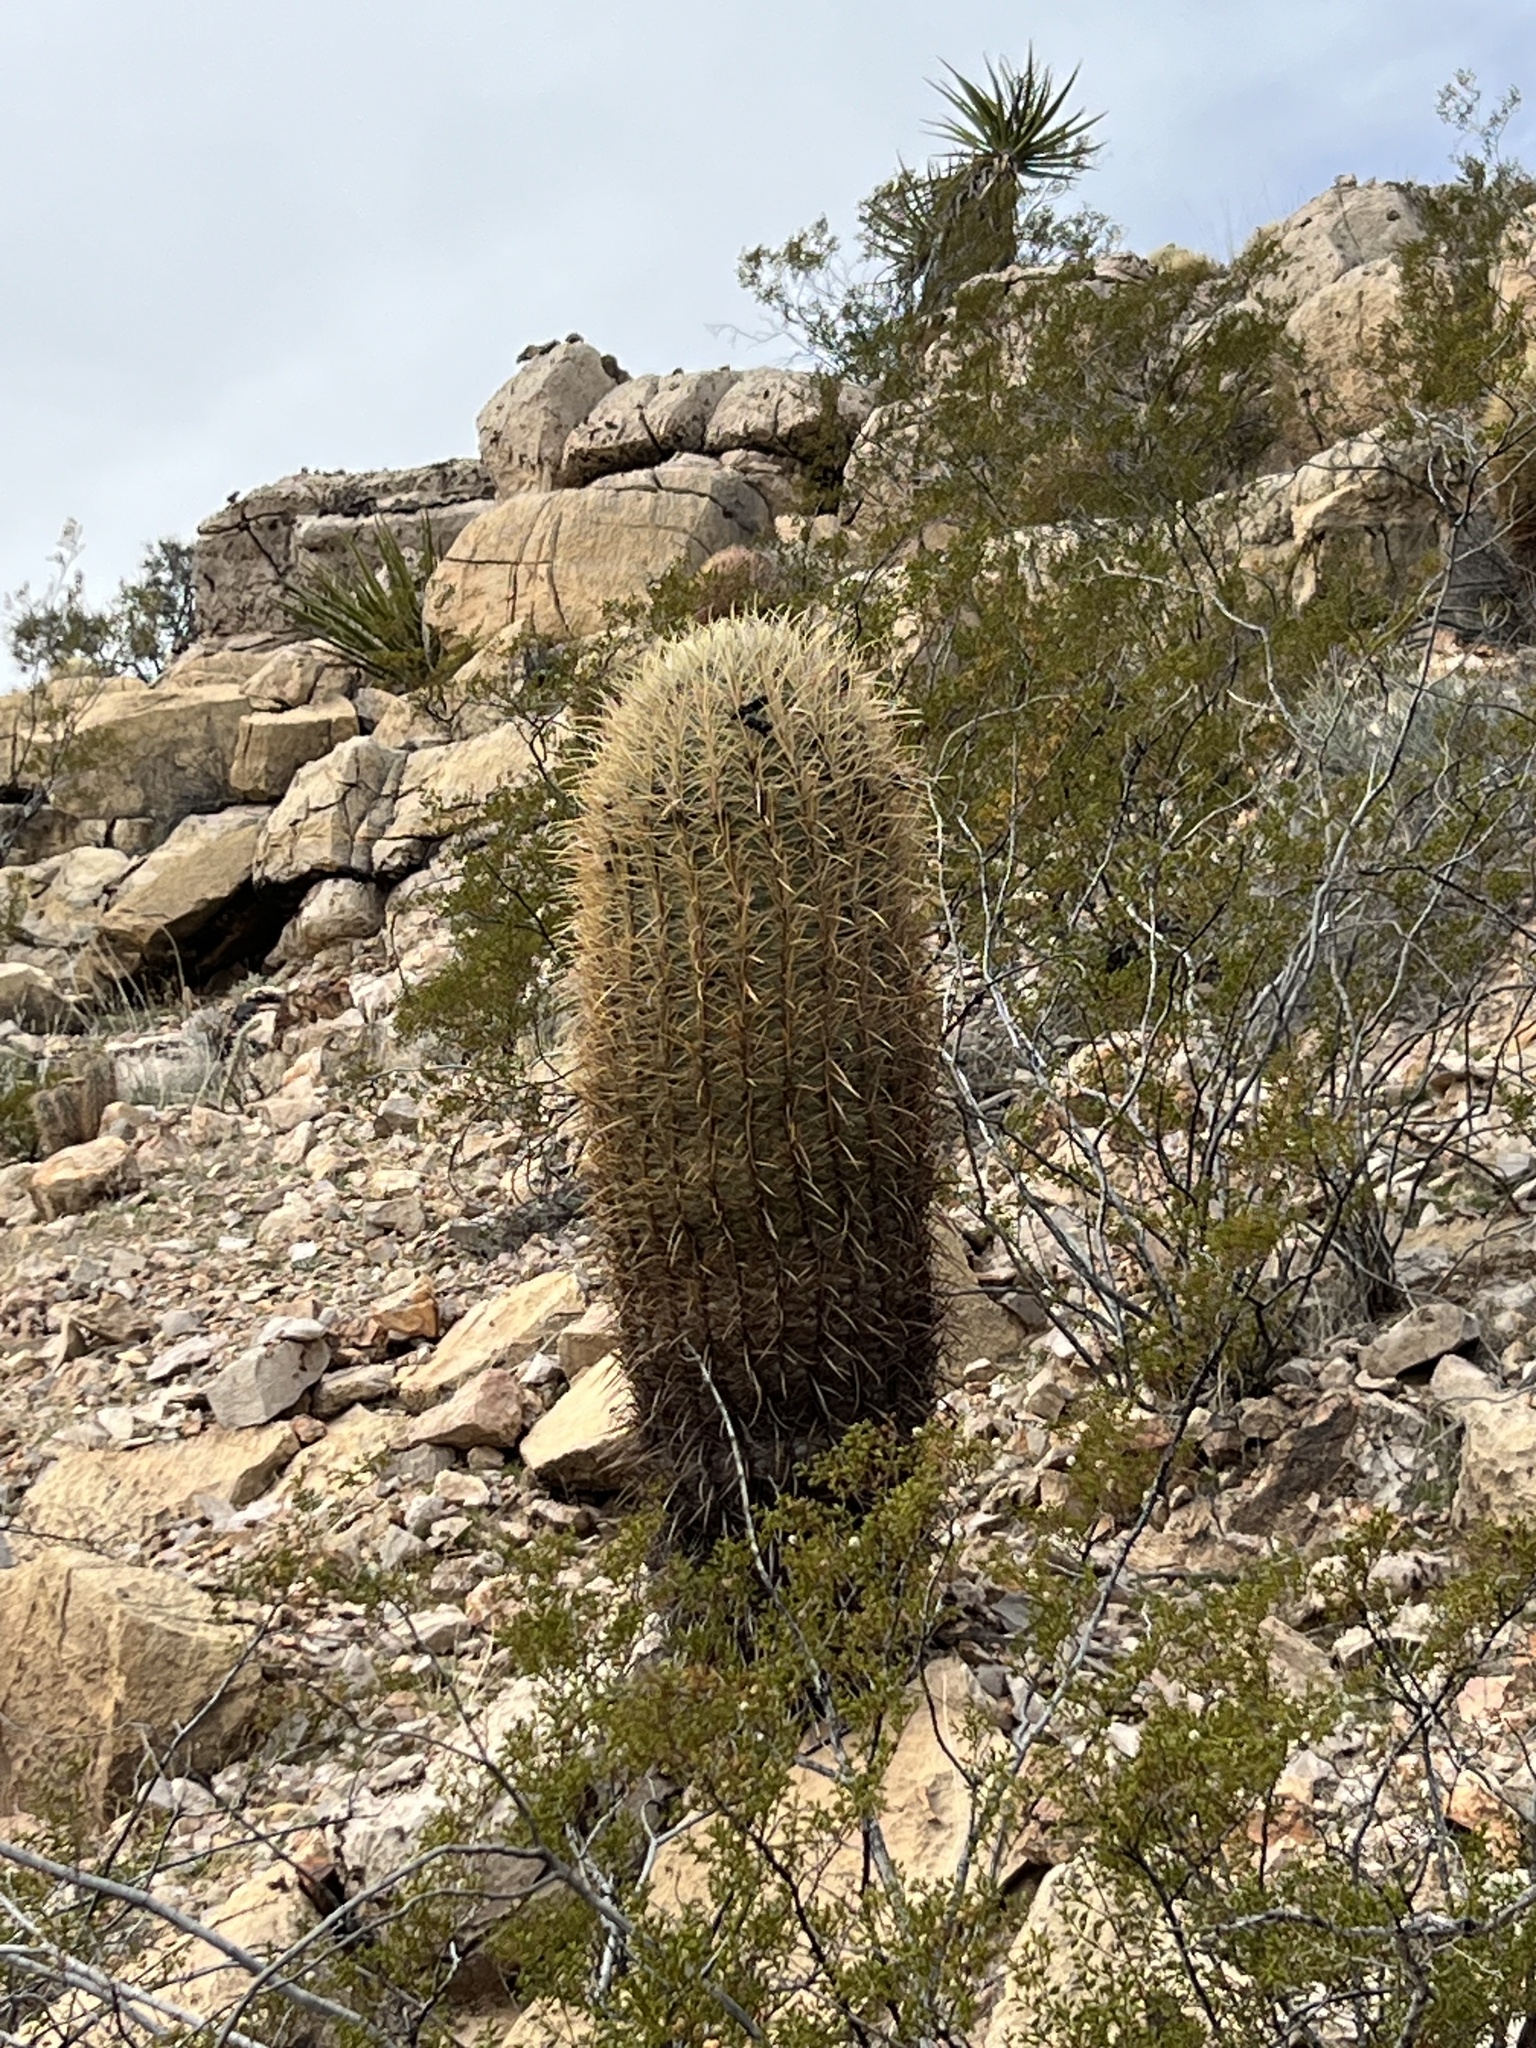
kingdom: Plantae
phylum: Tracheophyta
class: Magnoliopsida
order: Caryophyllales
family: Cactaceae
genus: Ferocactus
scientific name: Ferocactus cylindraceus
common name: California barrel cactus
